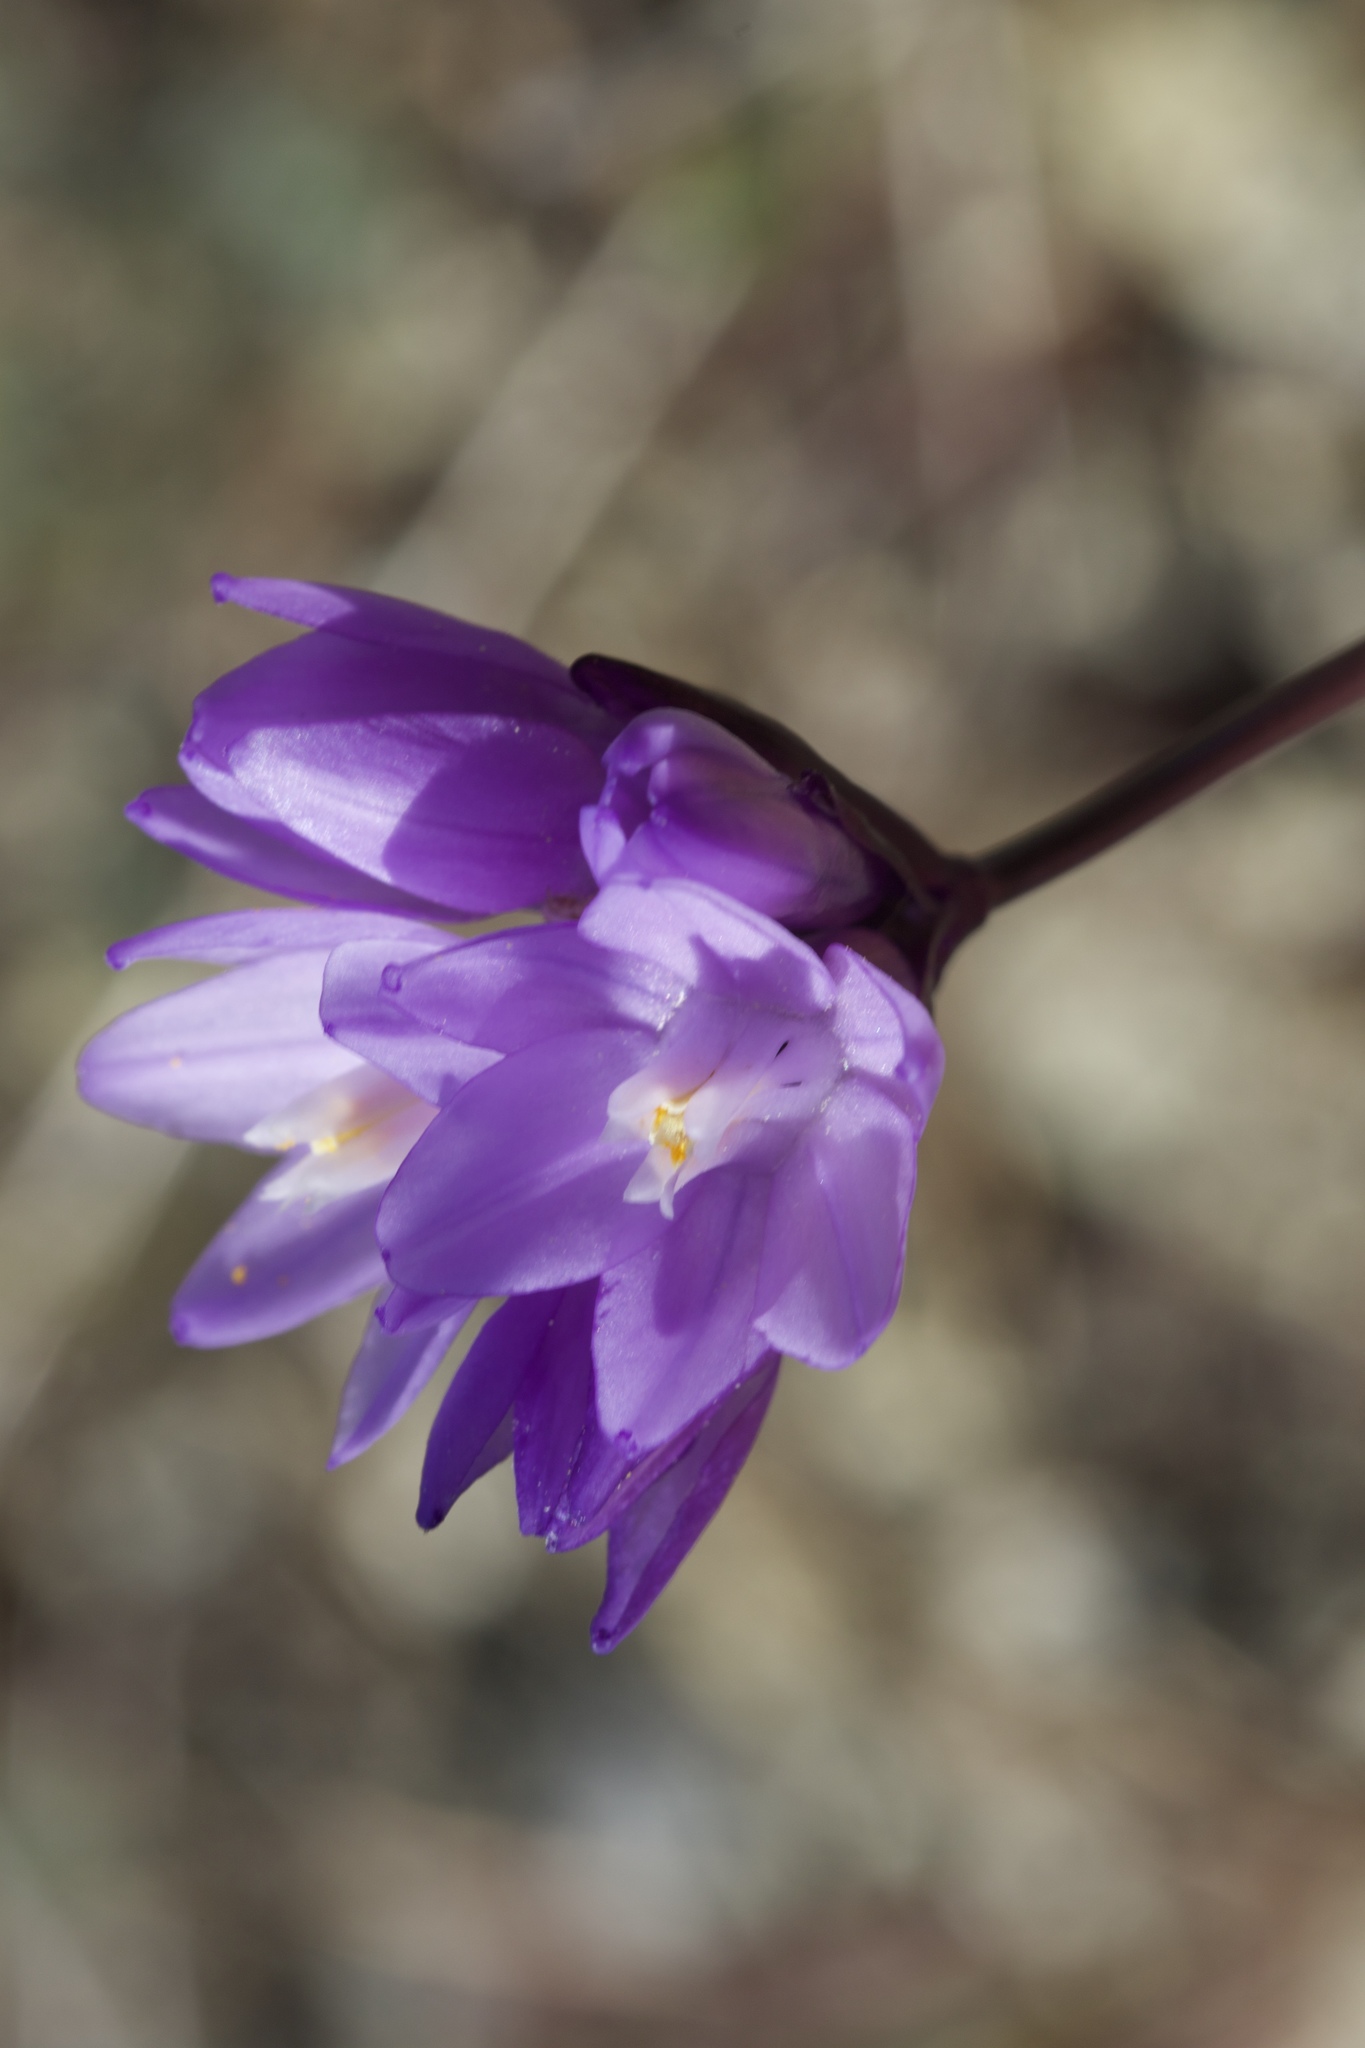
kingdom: Plantae
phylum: Tracheophyta
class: Liliopsida
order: Asparagales
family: Asparagaceae
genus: Dipterostemon
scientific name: Dipterostemon capitatus
